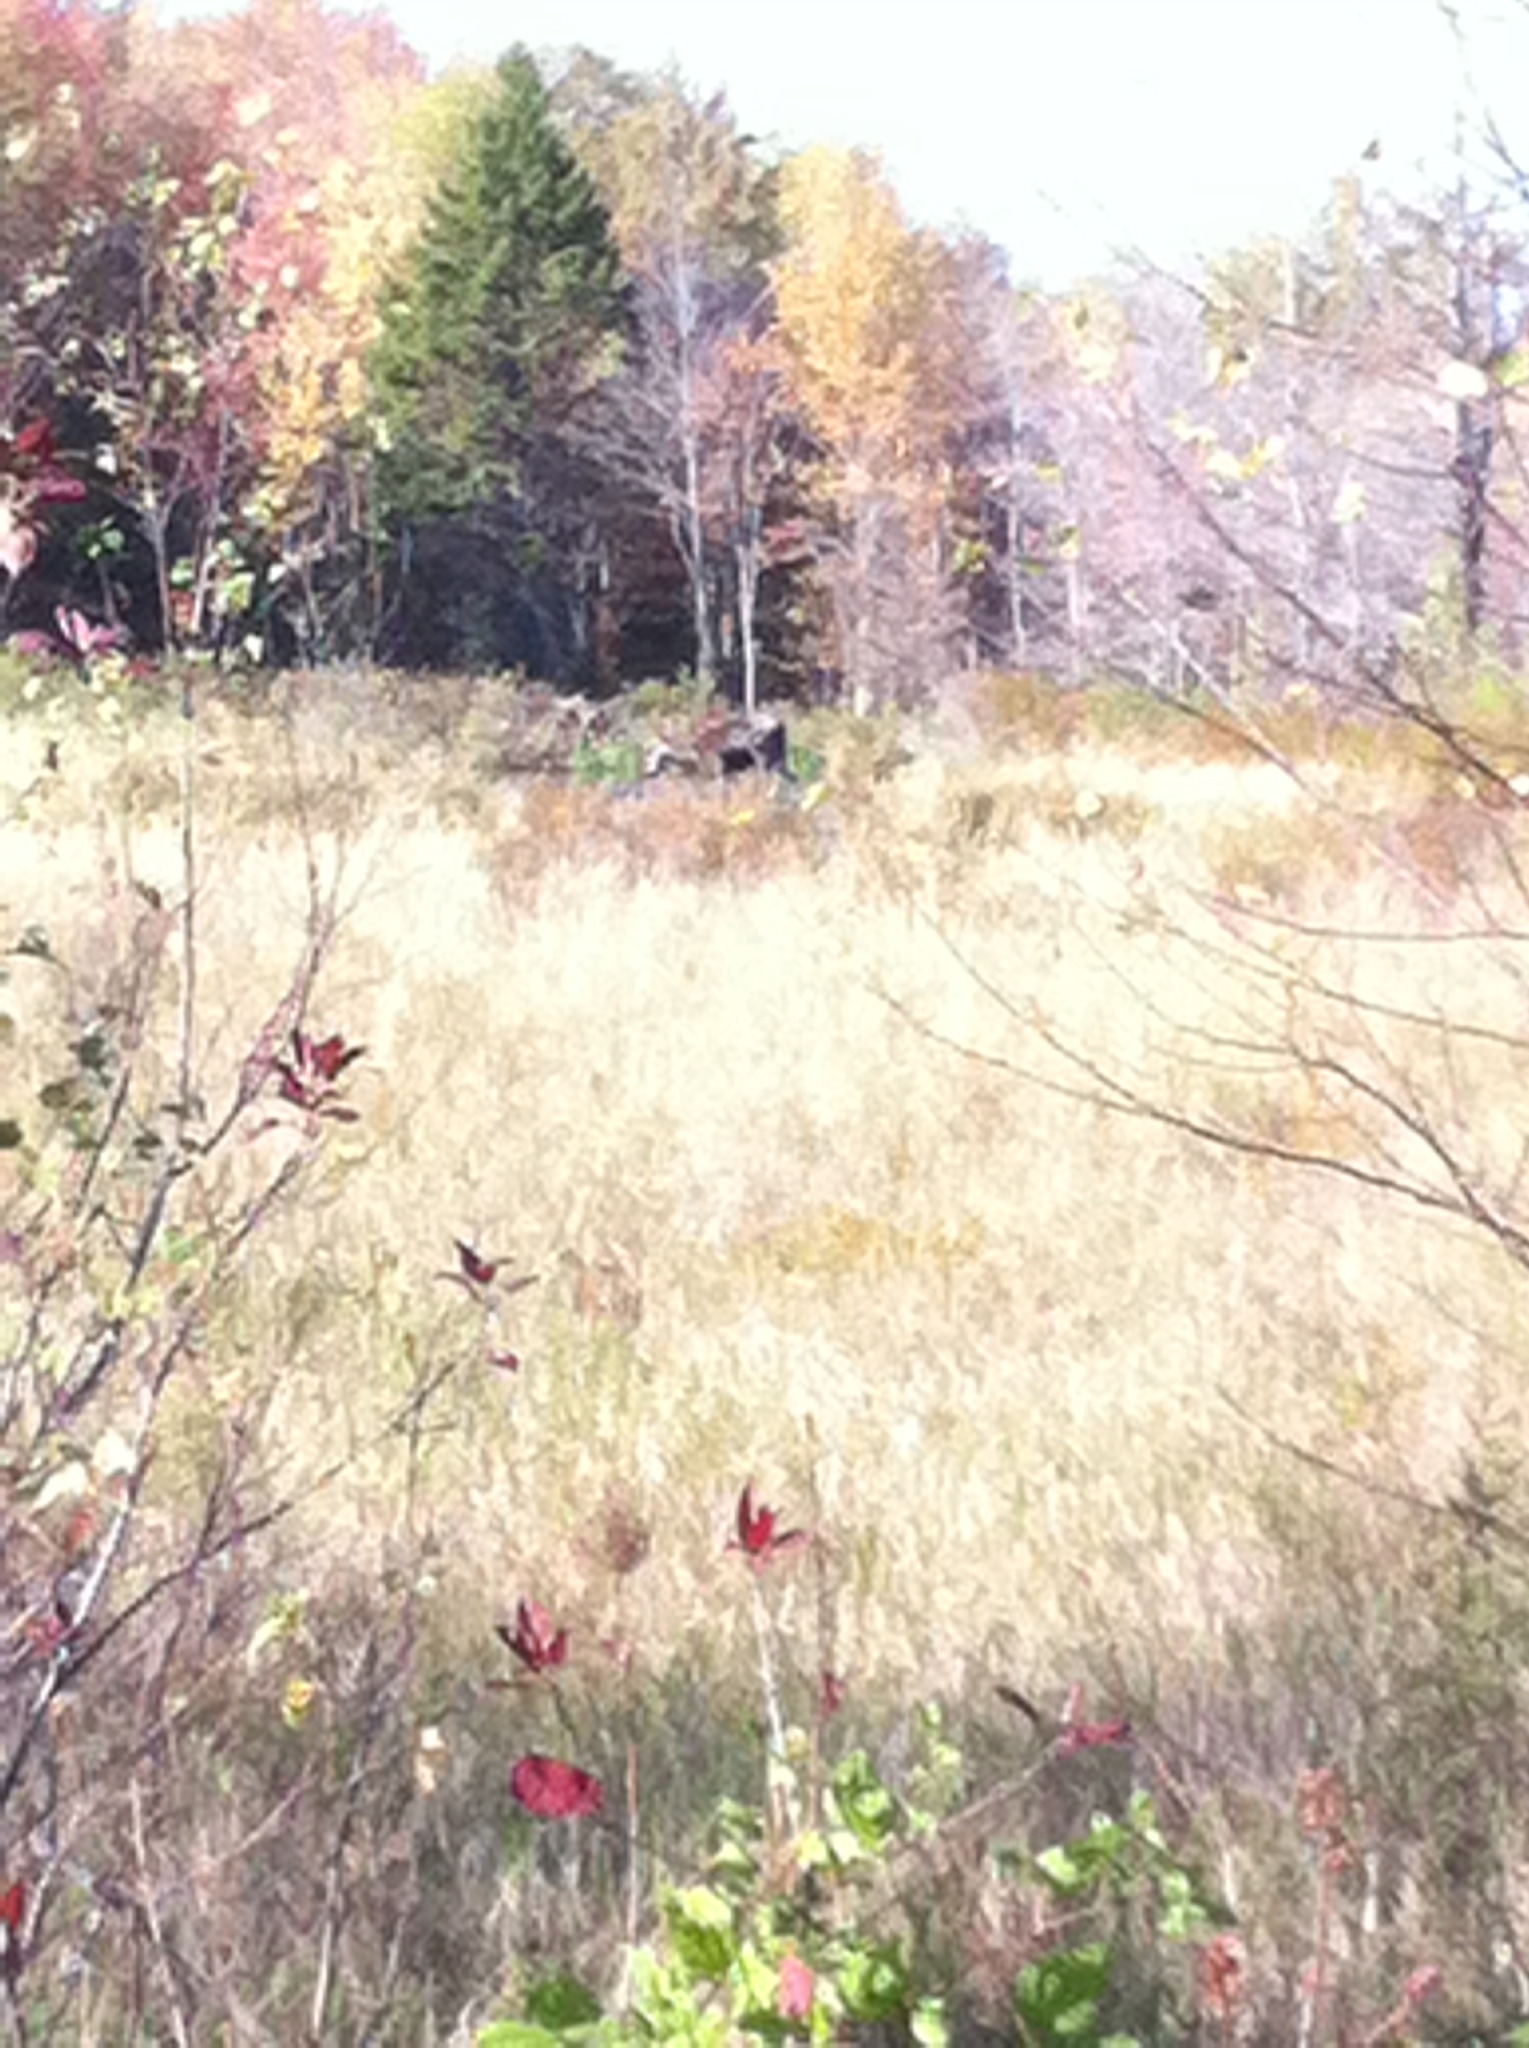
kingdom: Animalia
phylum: Chordata
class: Mammalia
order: Artiodactyla
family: Cervidae
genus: Alces
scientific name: Alces alces
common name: Moose
